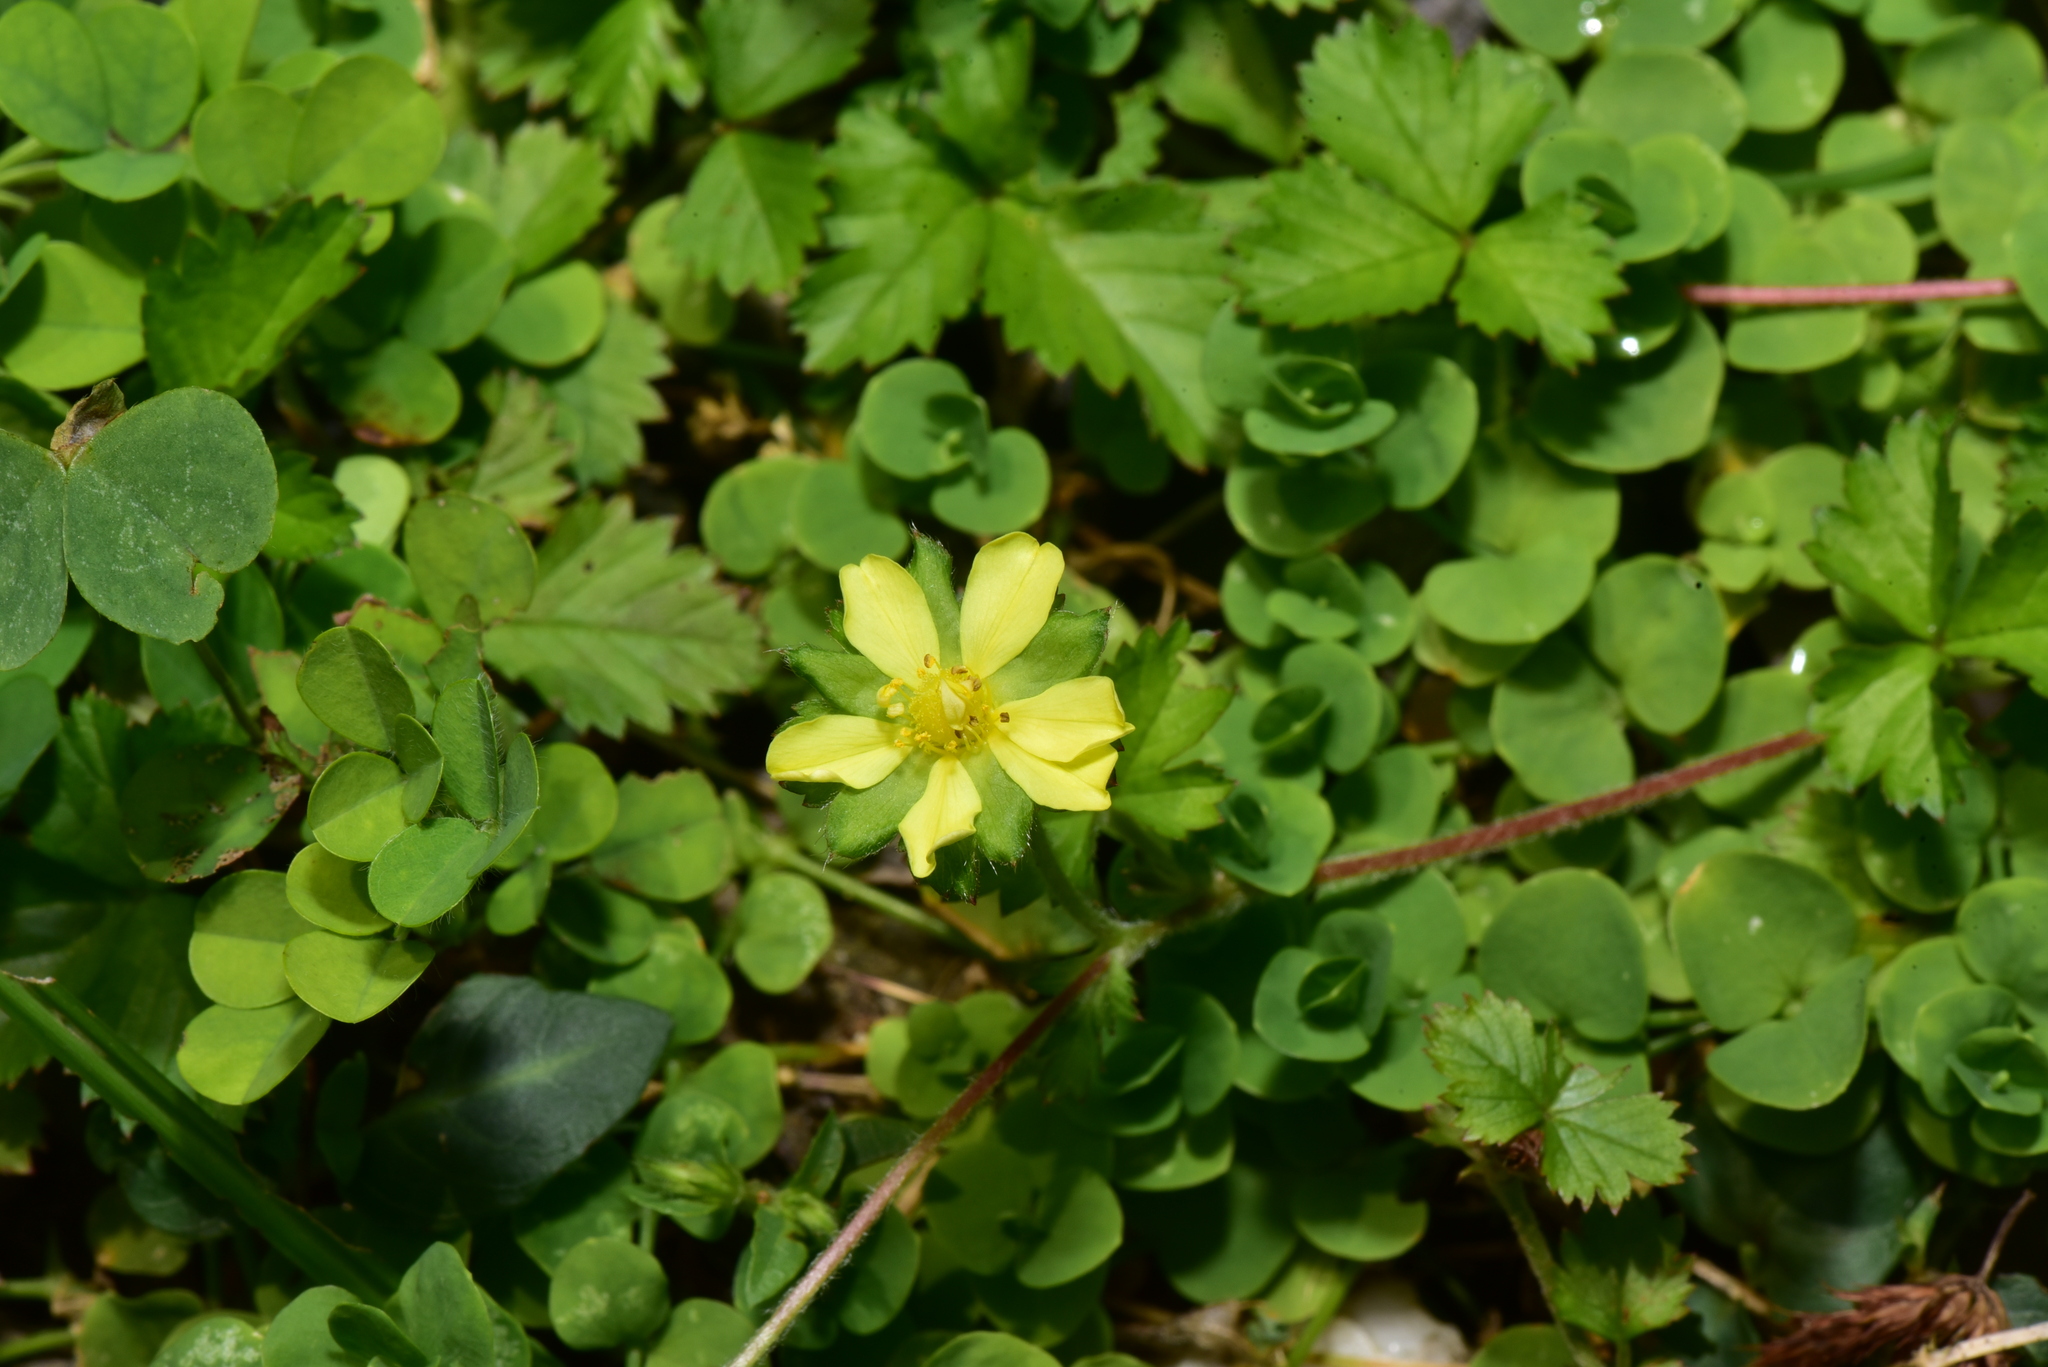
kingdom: Plantae
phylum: Tracheophyta
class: Magnoliopsida
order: Rosales
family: Rosaceae
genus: Potentilla
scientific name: Potentilla wallichiana
